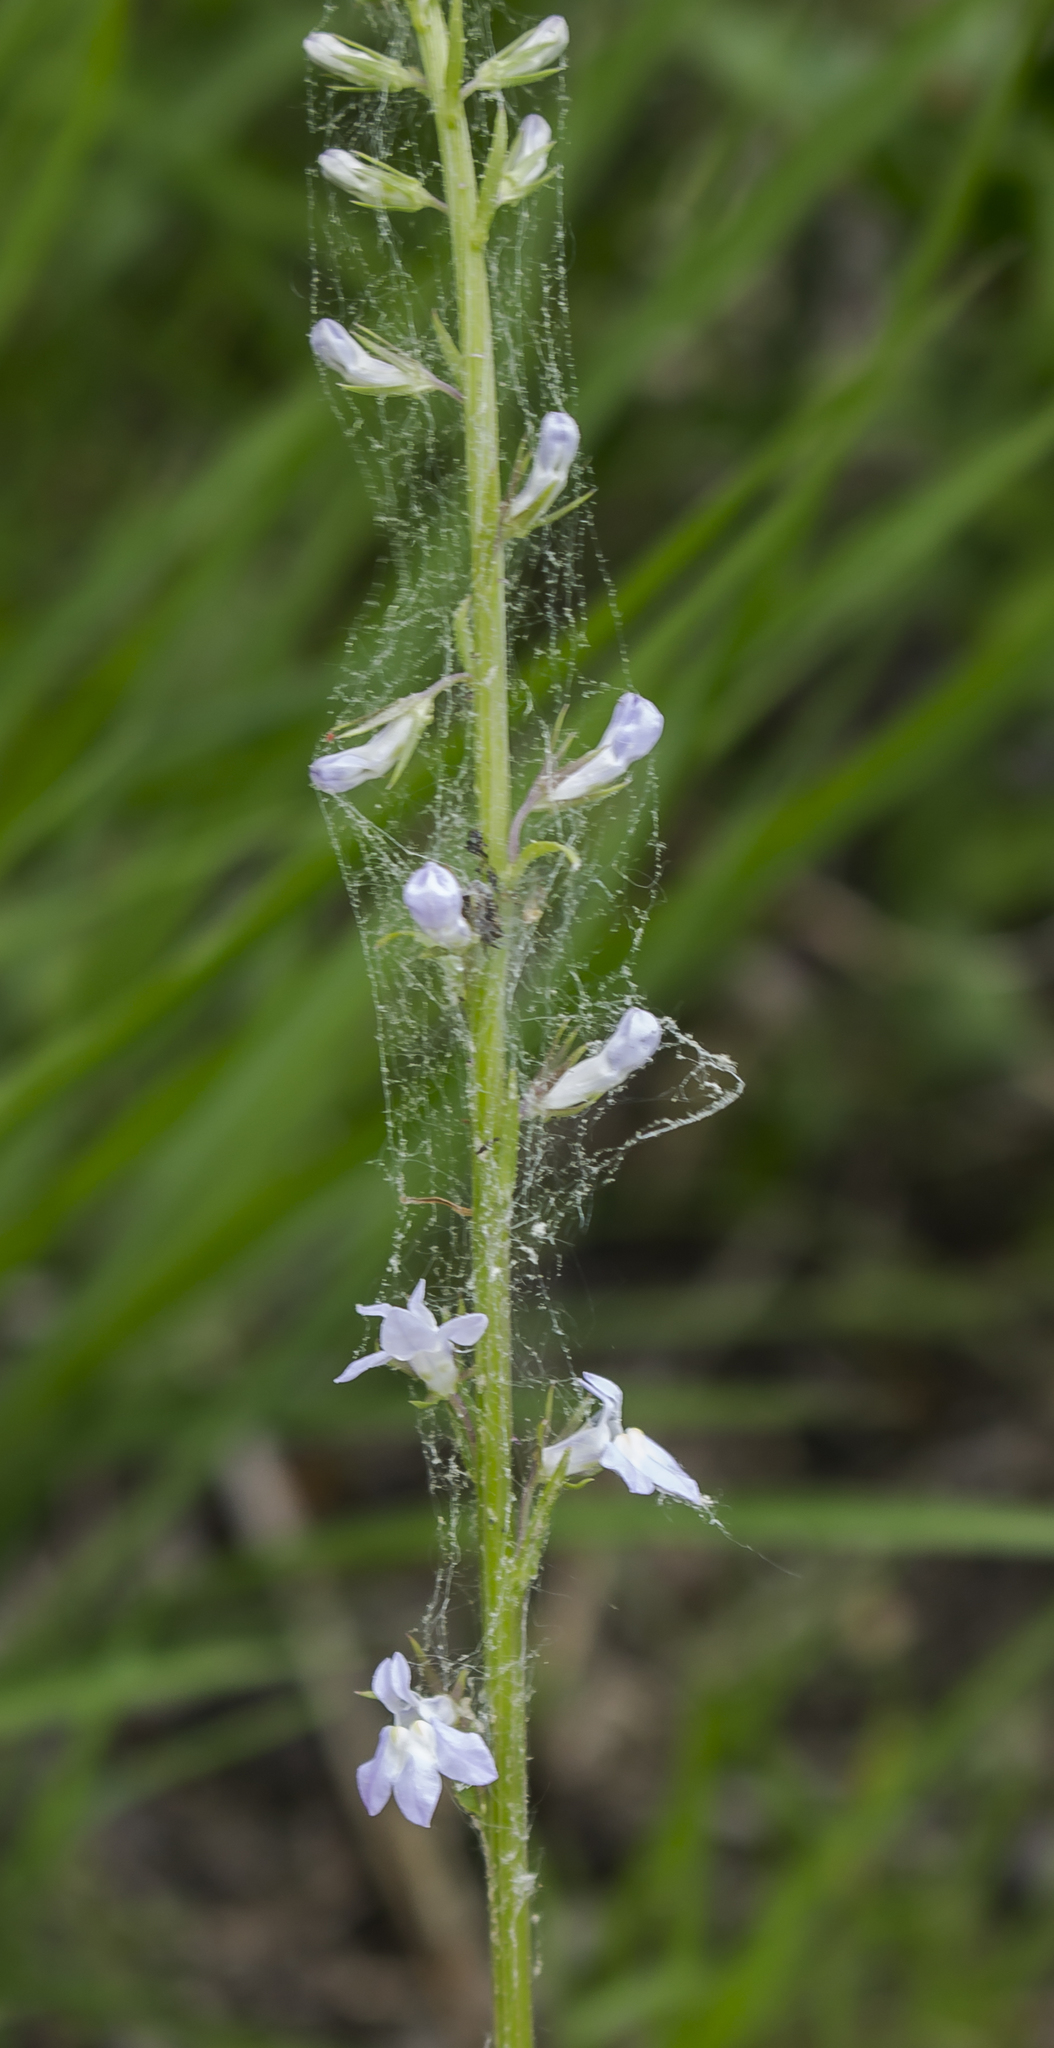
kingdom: Plantae
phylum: Tracheophyta
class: Magnoliopsida
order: Asterales
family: Campanulaceae
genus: Lobelia
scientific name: Lobelia spicata
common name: Pale-spike lobelia
